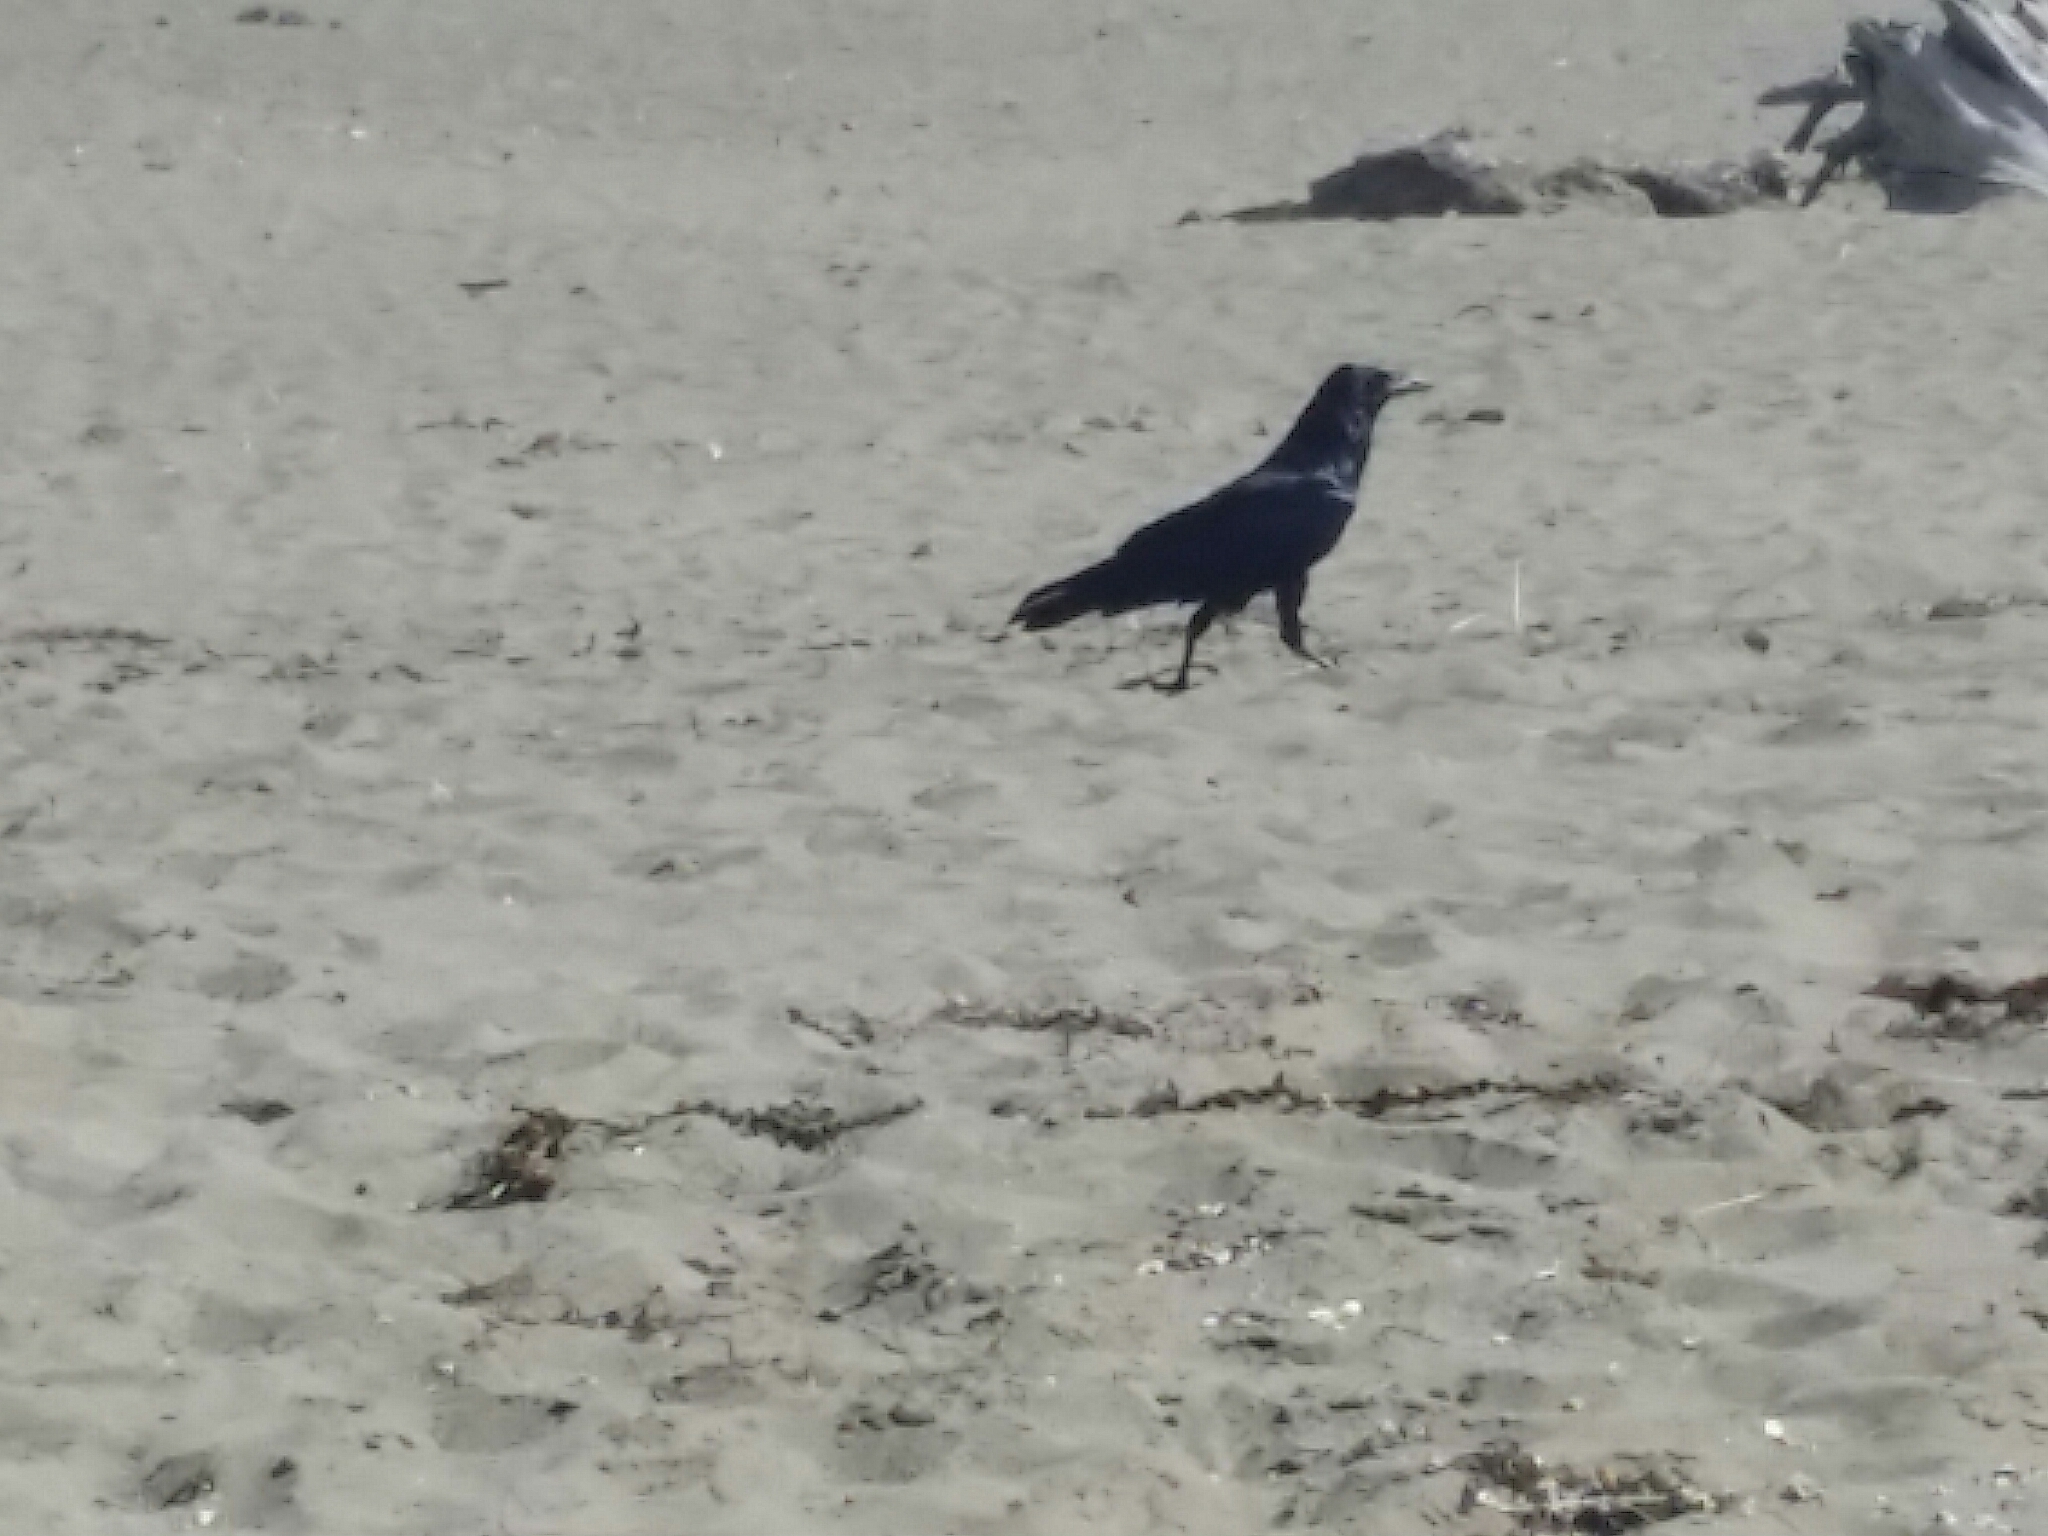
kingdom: Animalia
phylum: Chordata
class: Aves
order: Passeriformes
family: Corvidae
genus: Corvus
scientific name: Corvus brachyrhynchos
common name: American crow
